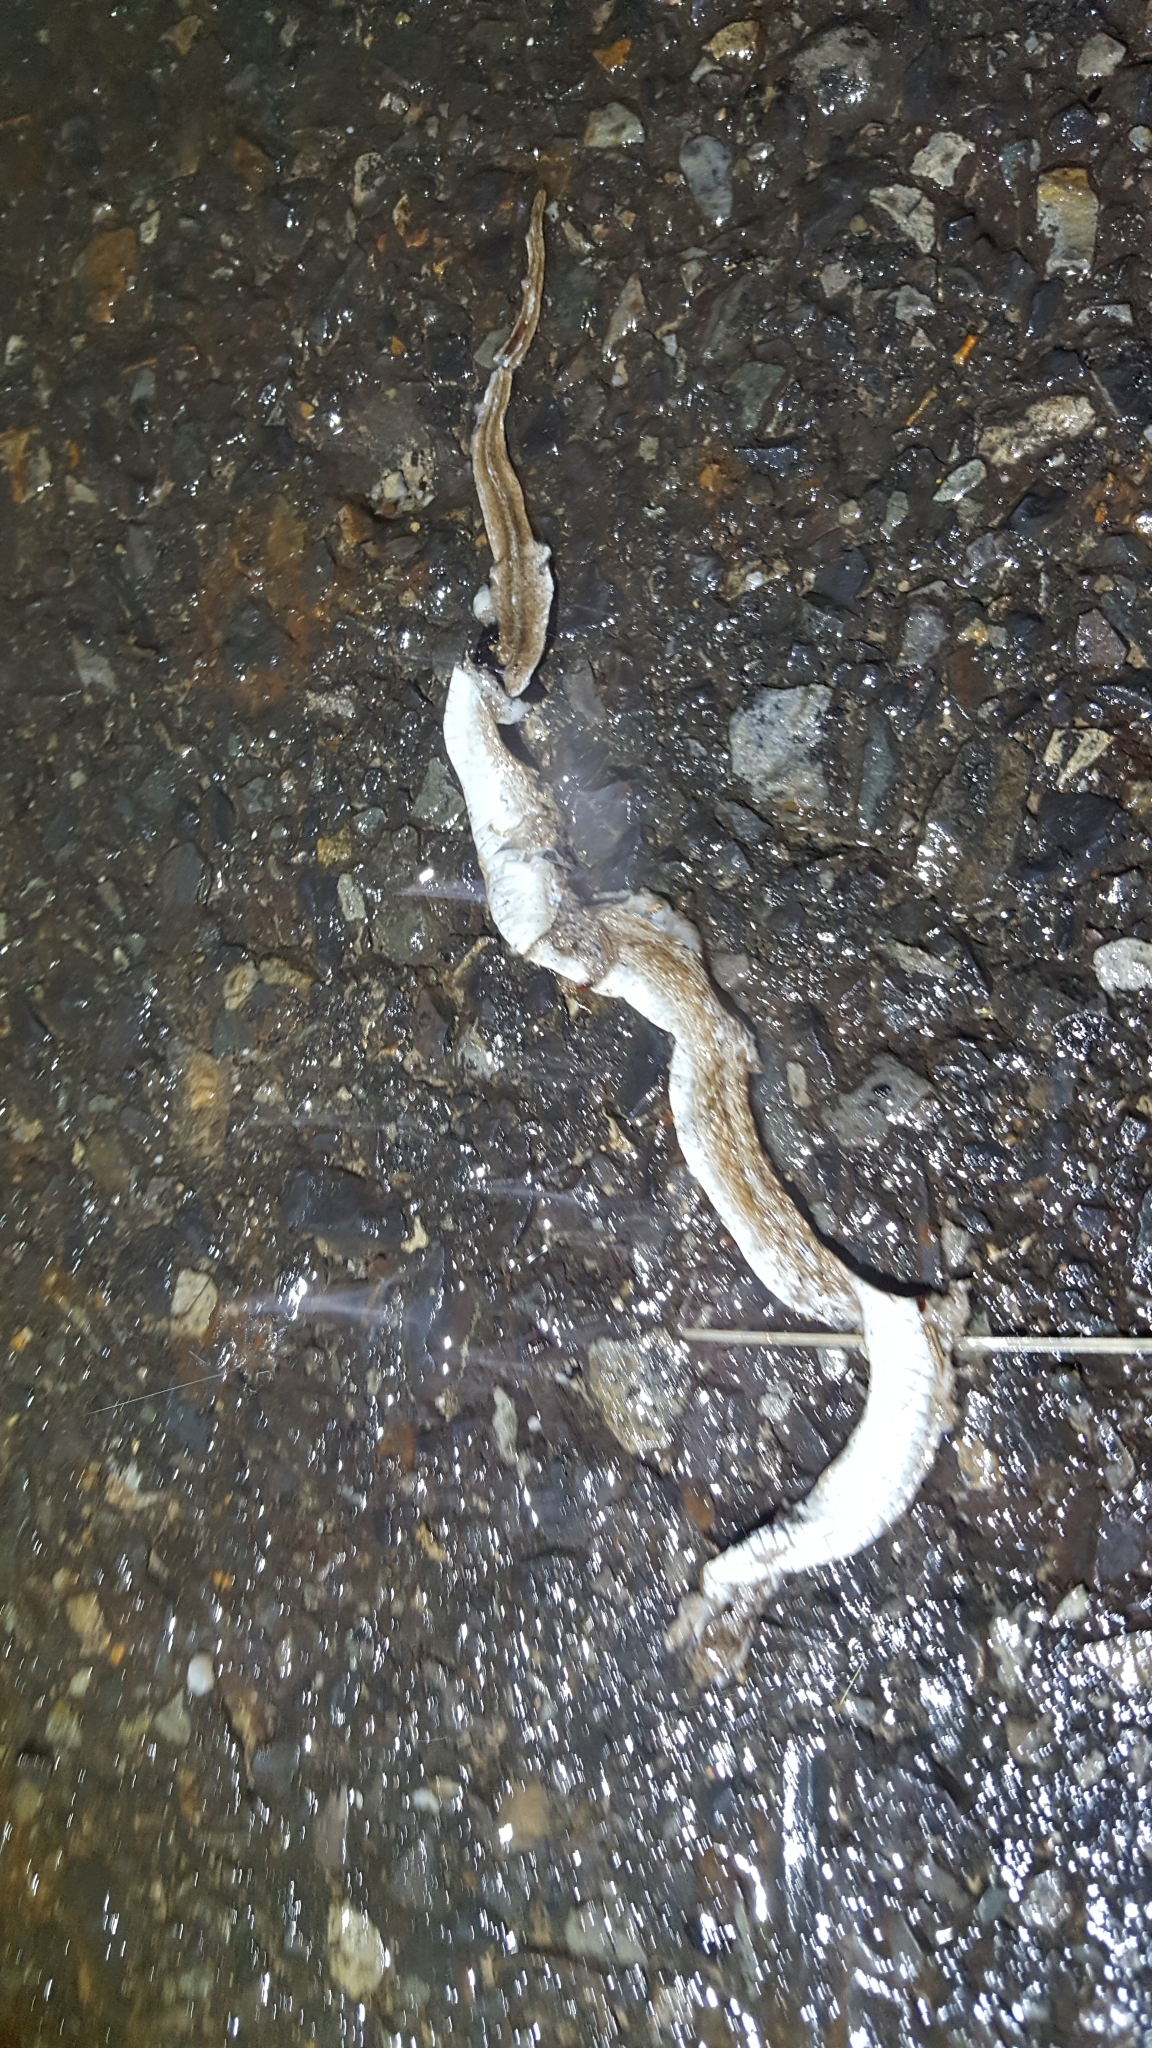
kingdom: Animalia
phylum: Chordata
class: Squamata
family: Colubridae
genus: Storeria
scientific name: Storeria dekayi
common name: (dekay’s) brown snake
